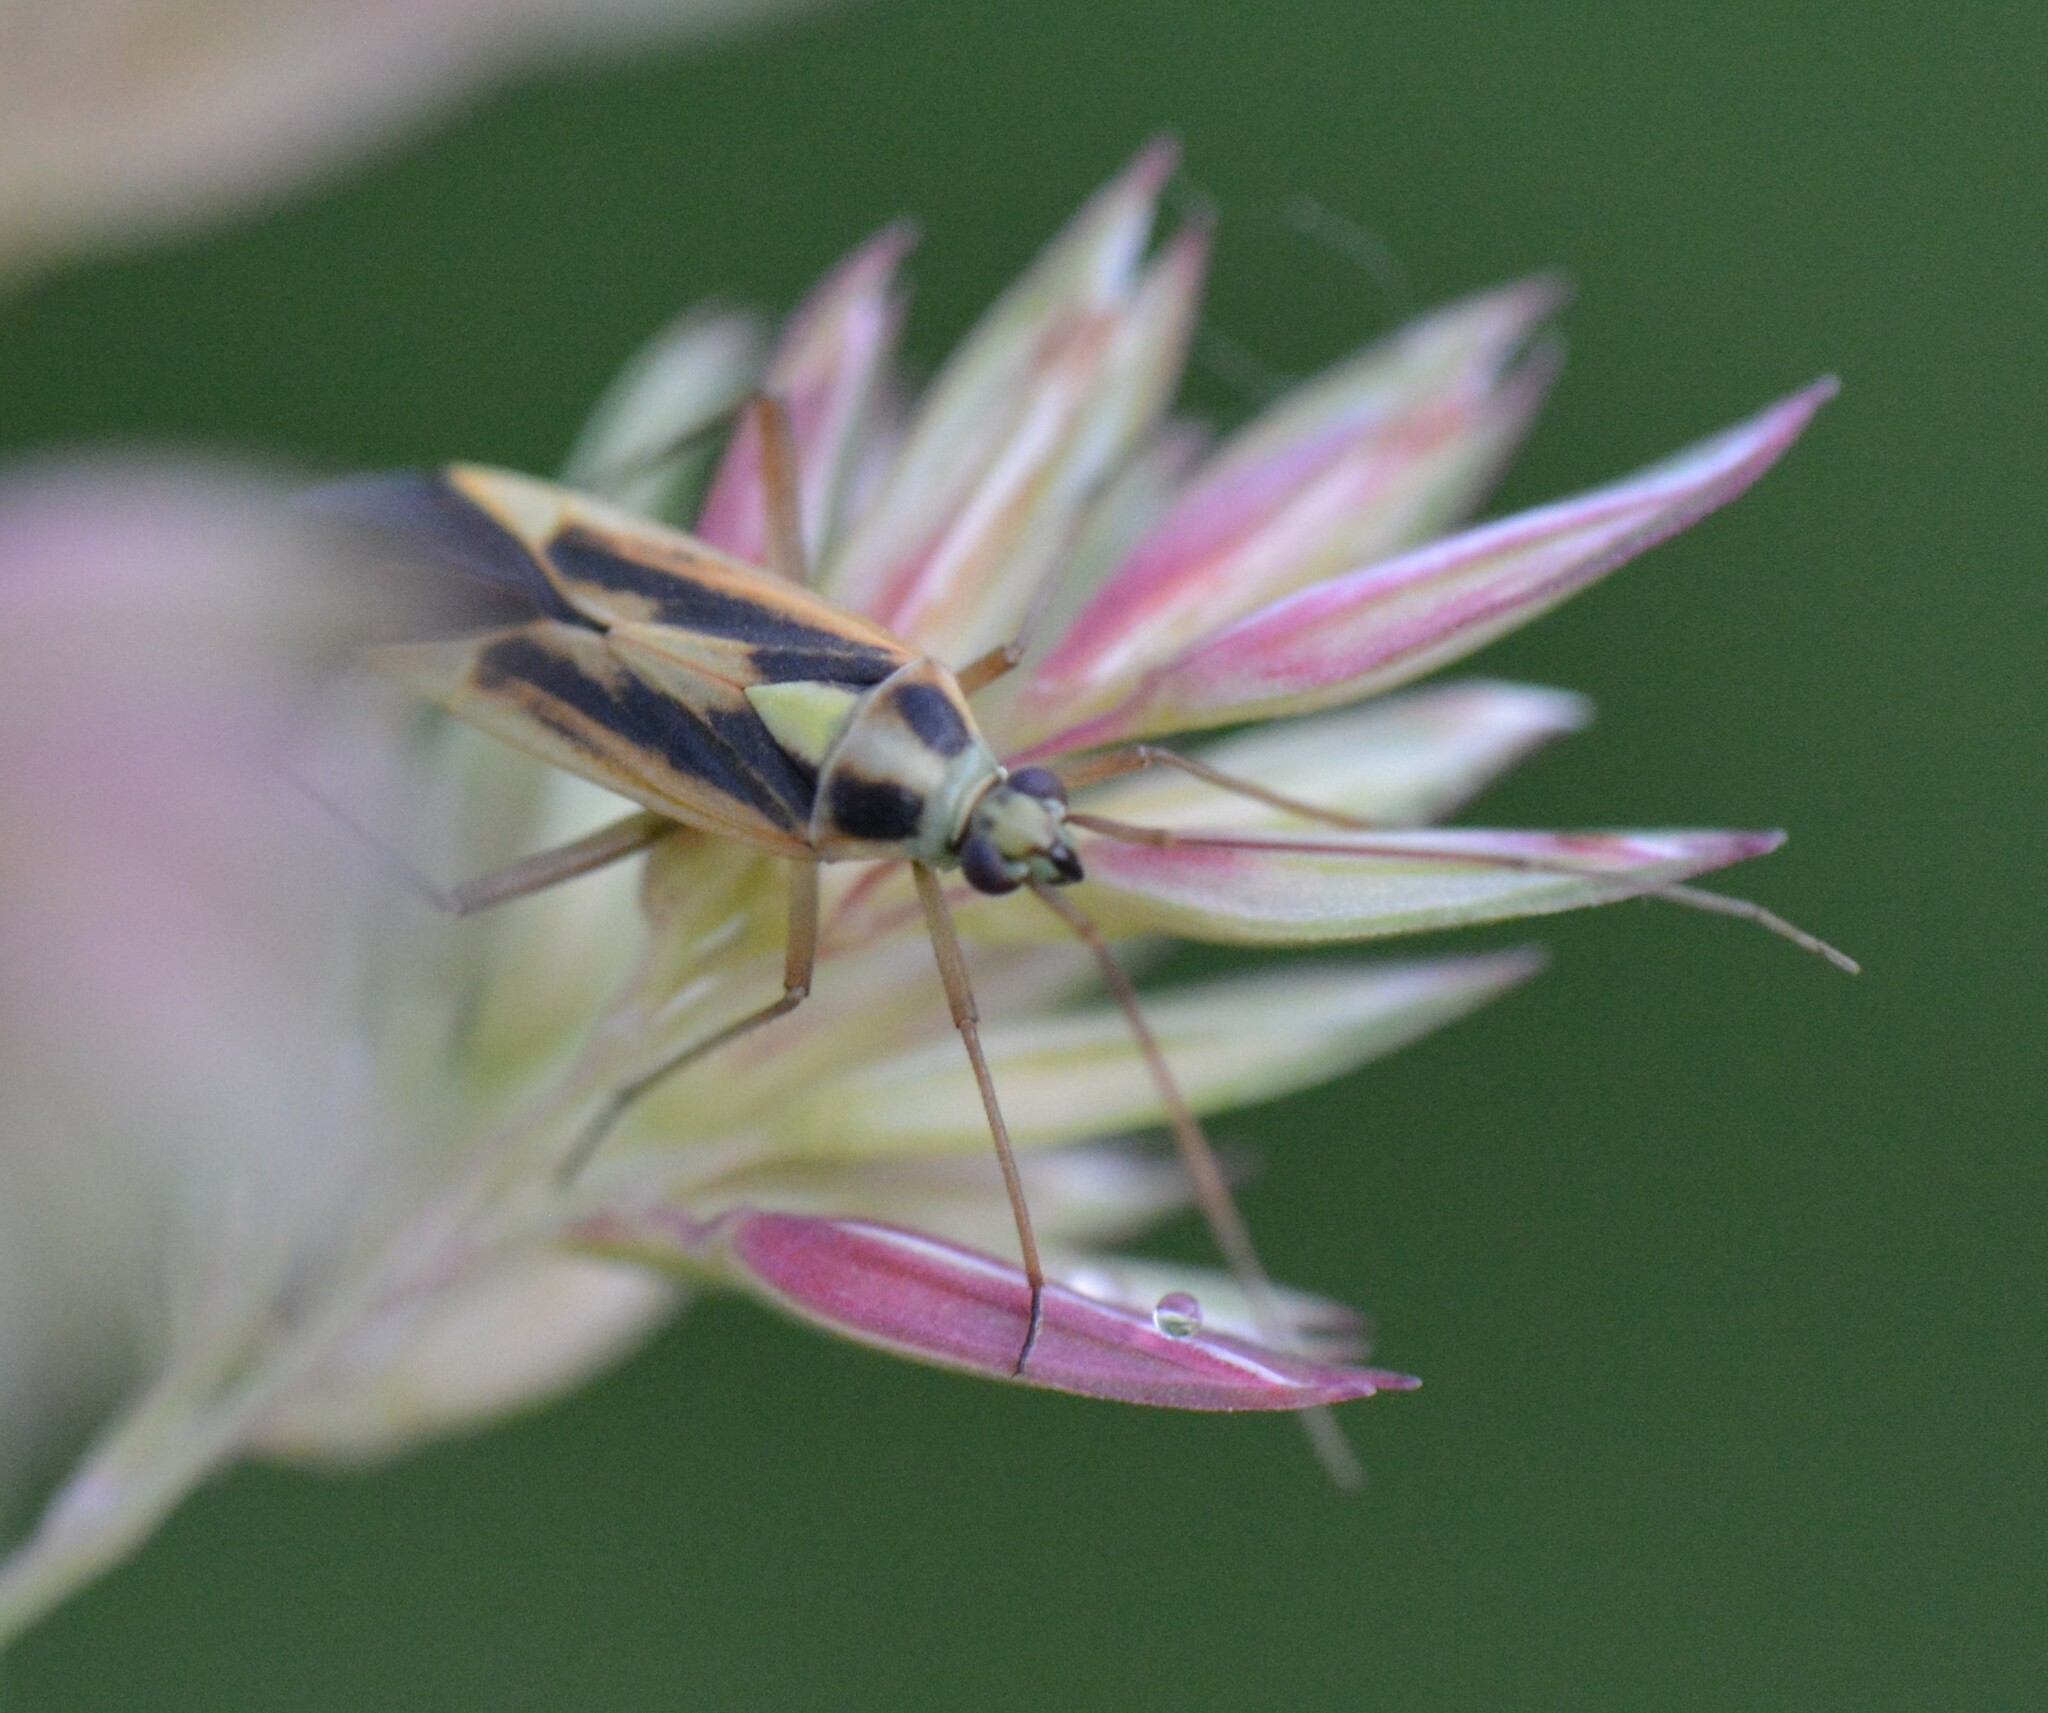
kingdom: Animalia
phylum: Arthropoda
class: Insecta
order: Hemiptera
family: Miridae
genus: Stenotus
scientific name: Stenotus binotatus
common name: Plant bug
